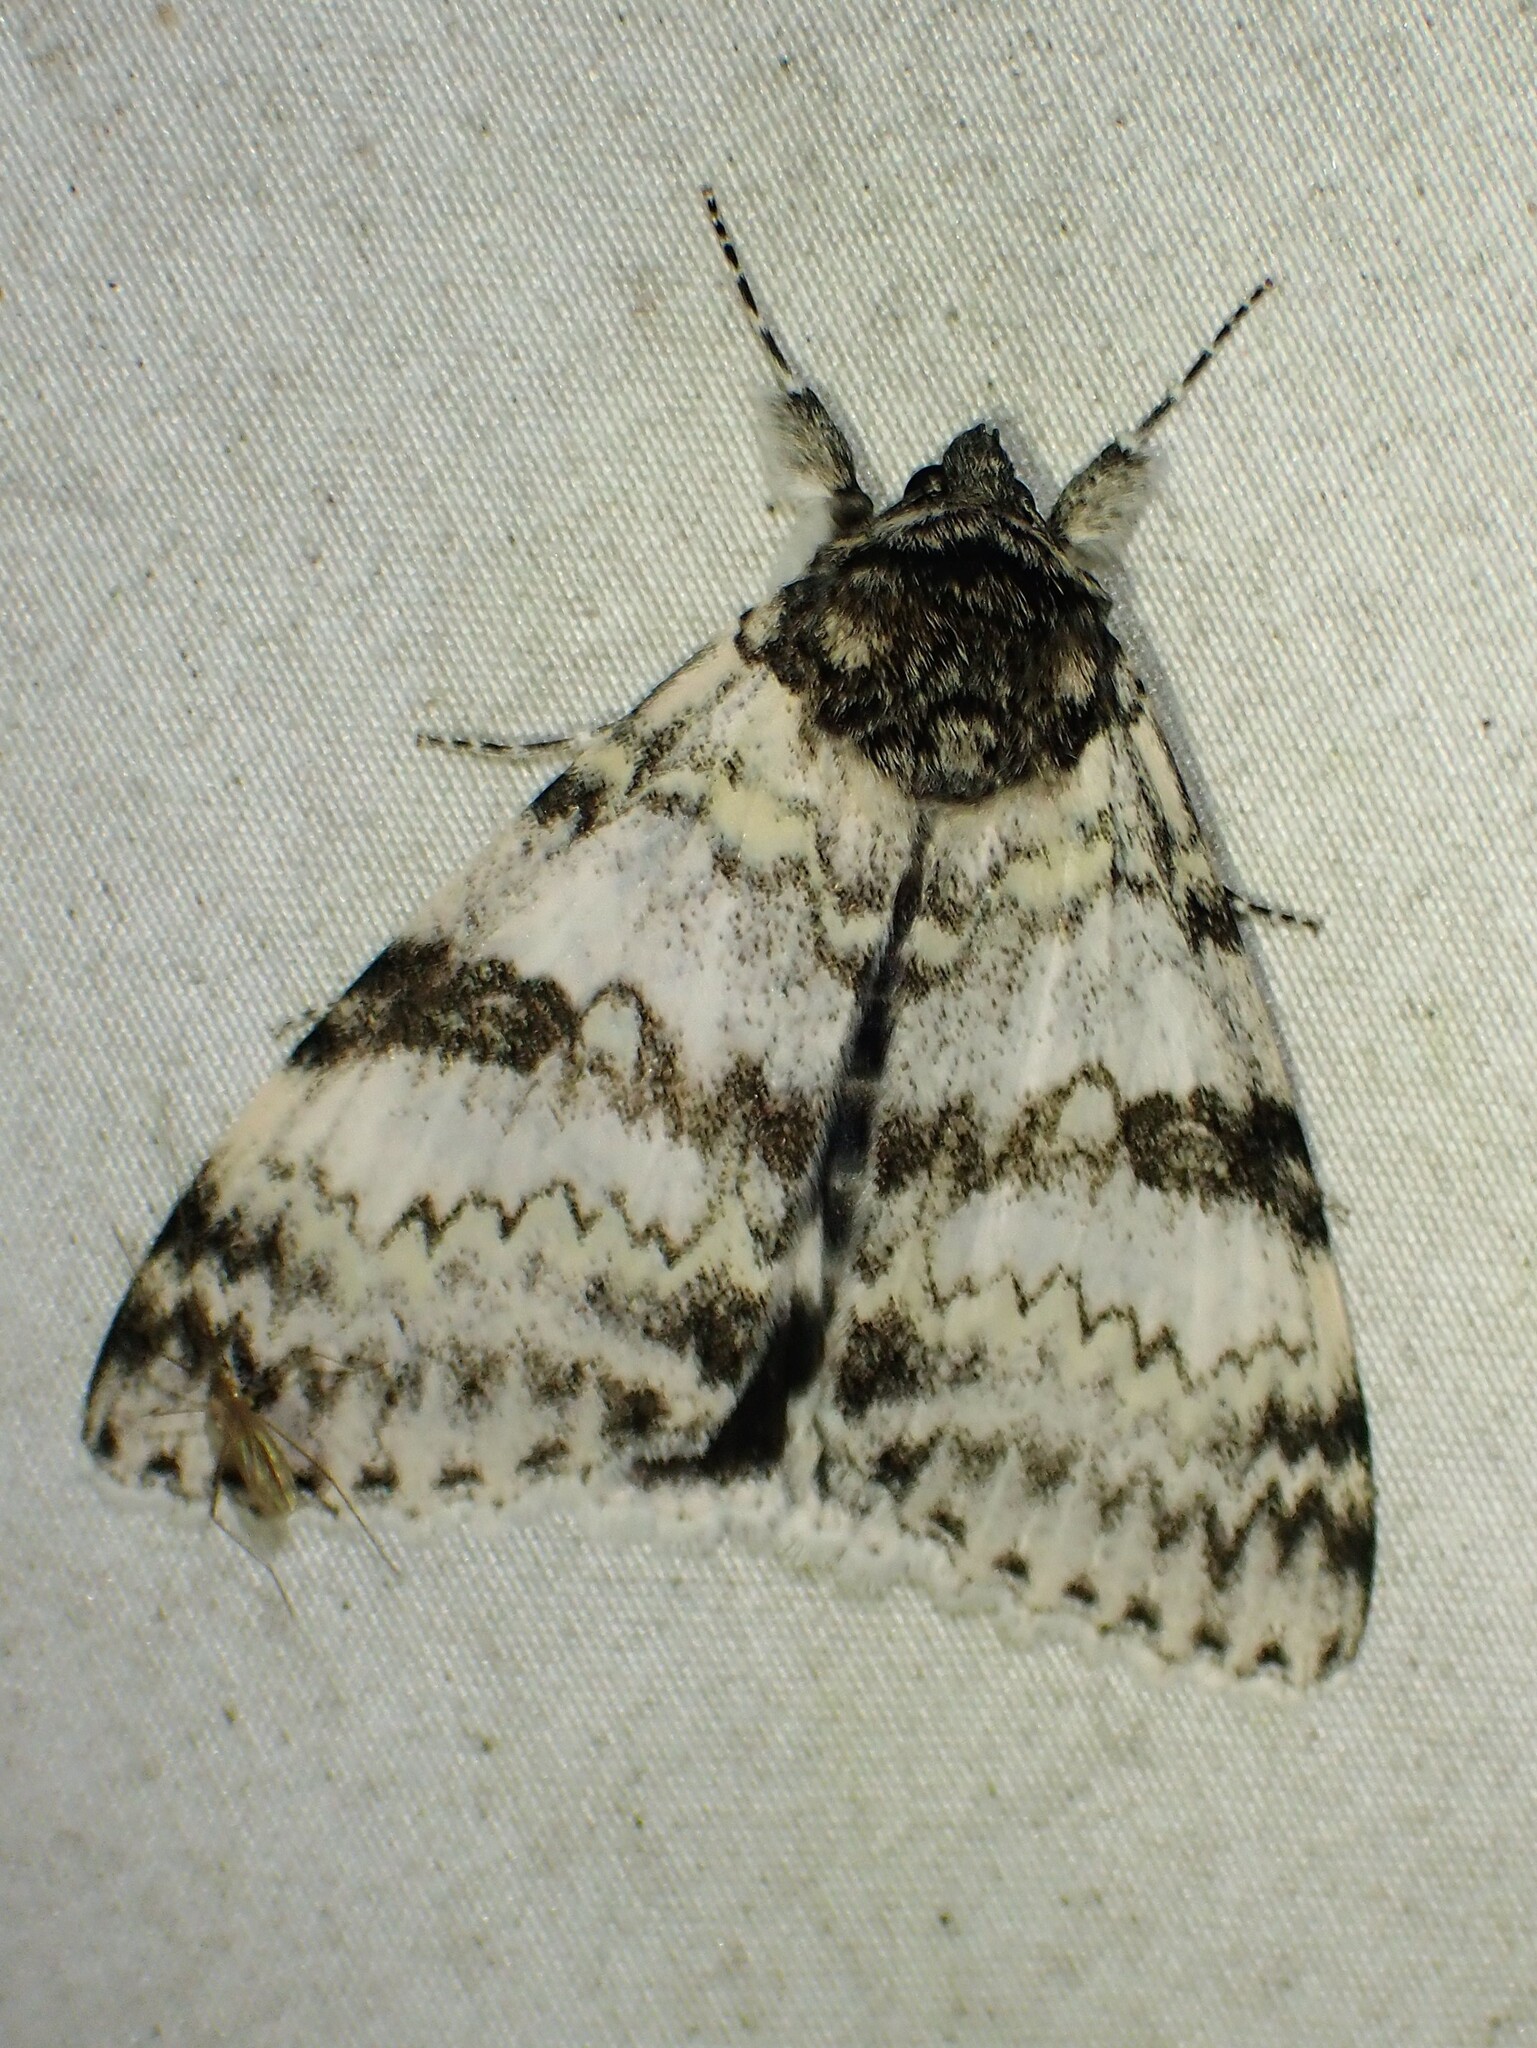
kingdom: Animalia
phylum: Arthropoda
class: Insecta
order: Lepidoptera
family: Erebidae
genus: Catocala
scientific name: Catocala relicta
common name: White underwing
